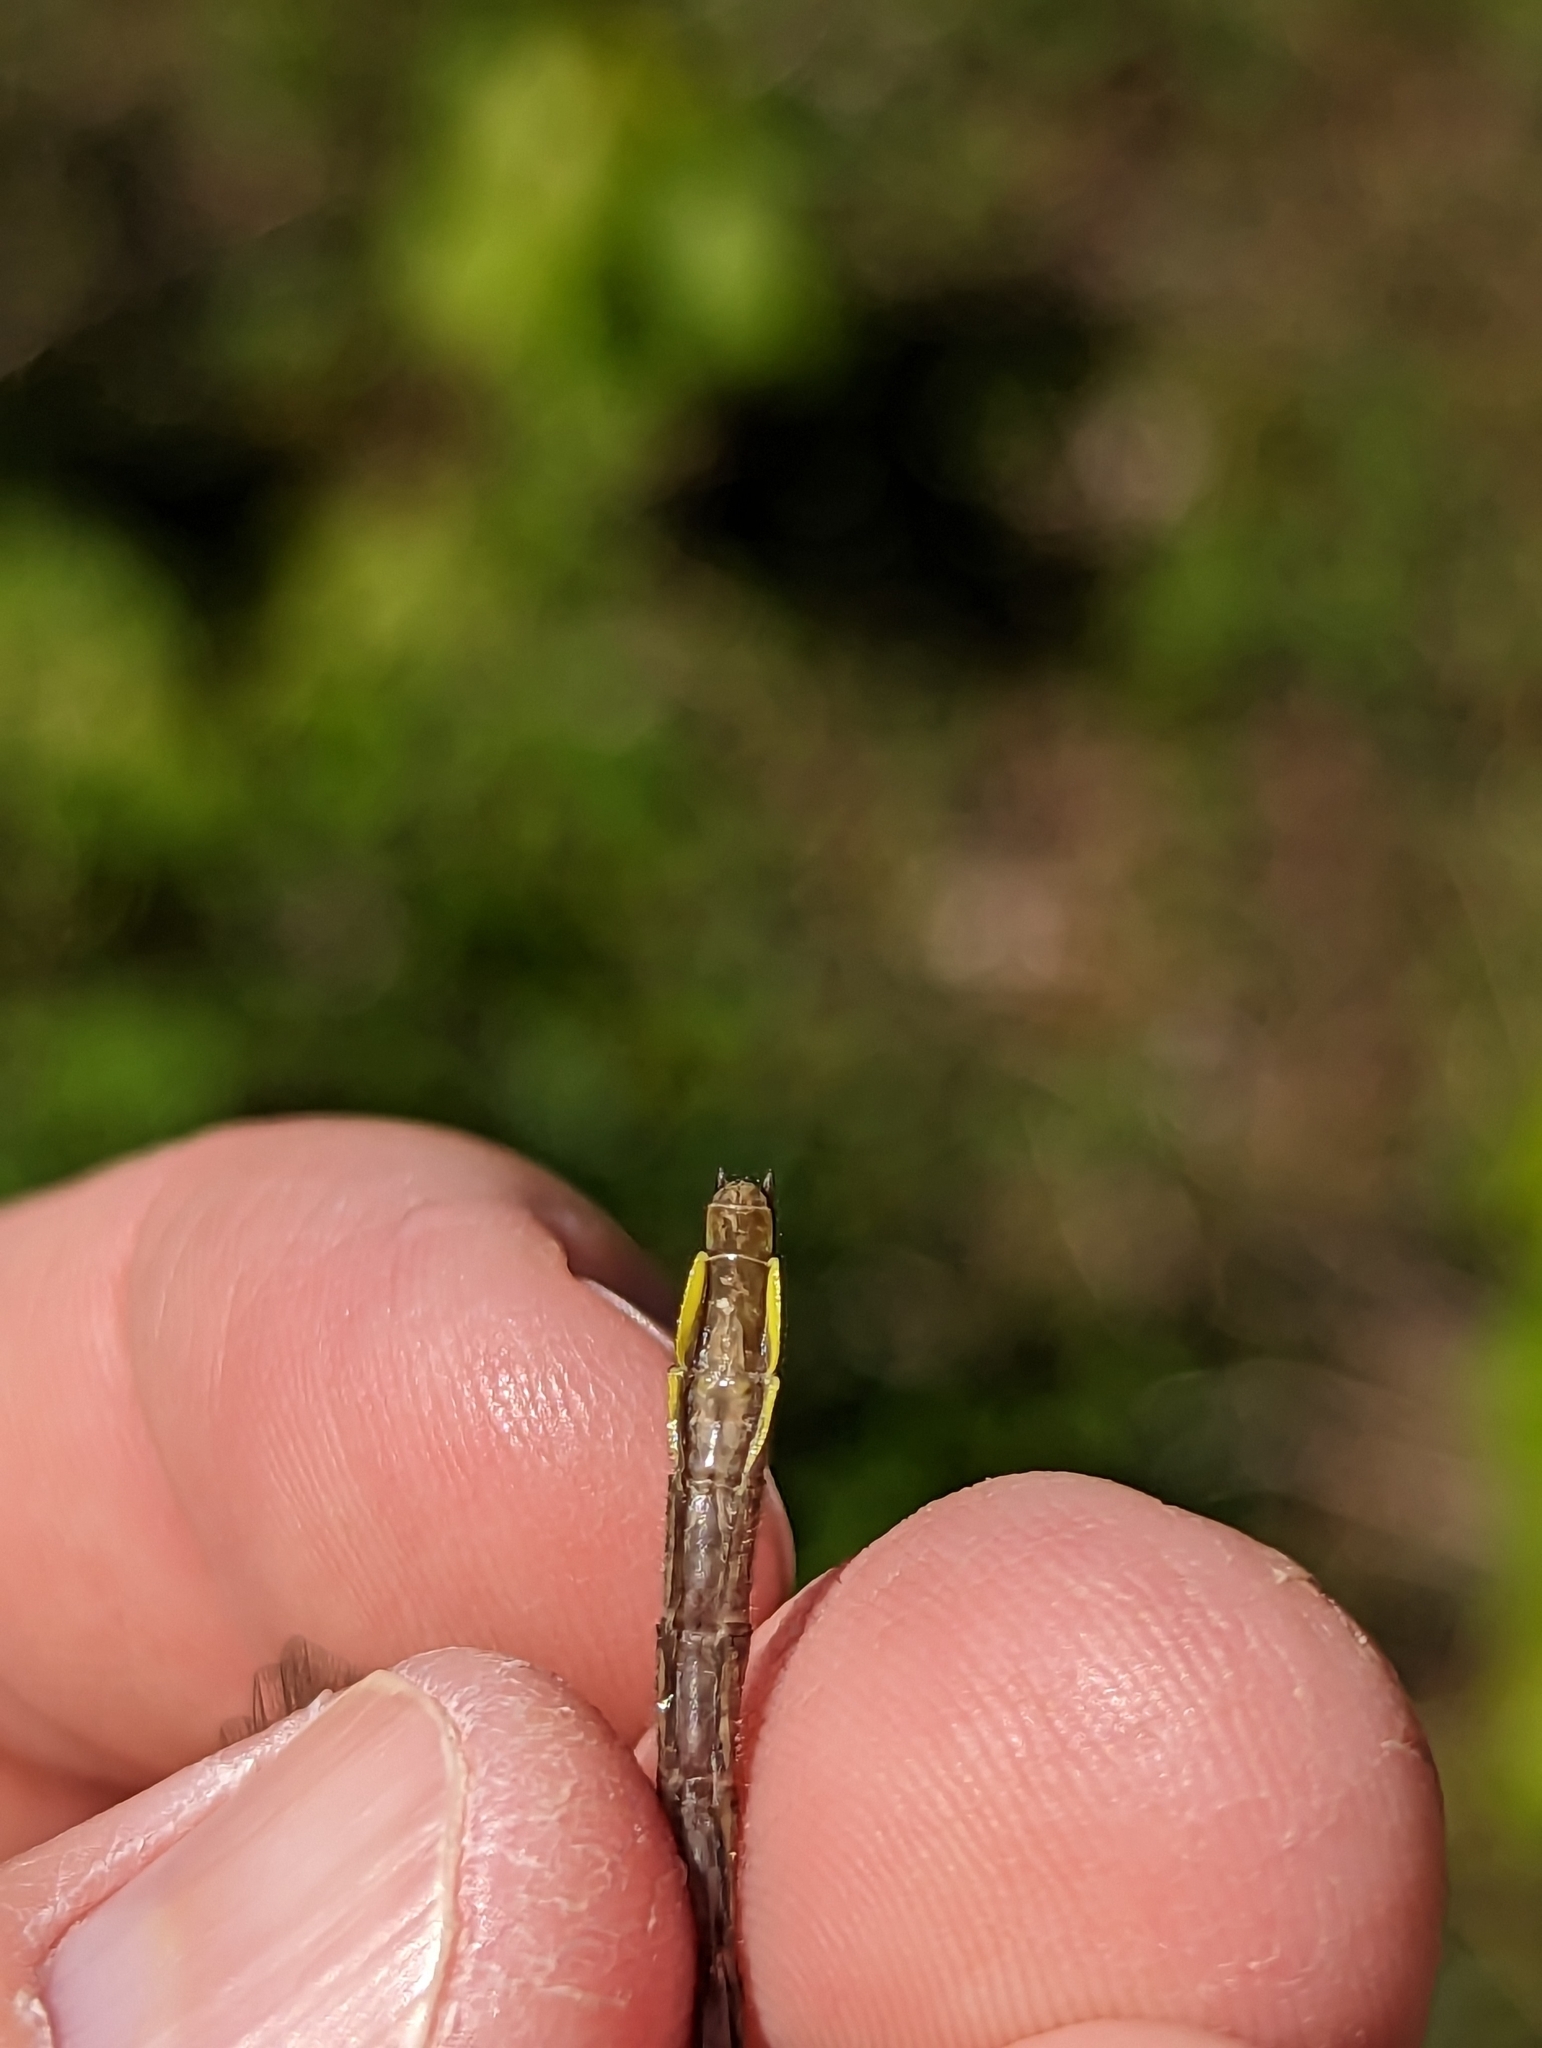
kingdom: Animalia
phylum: Arthropoda
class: Insecta
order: Odonata
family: Gomphidae
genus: Phanogomphus
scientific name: Phanogomphus borealis
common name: Beaverpond clubtail
